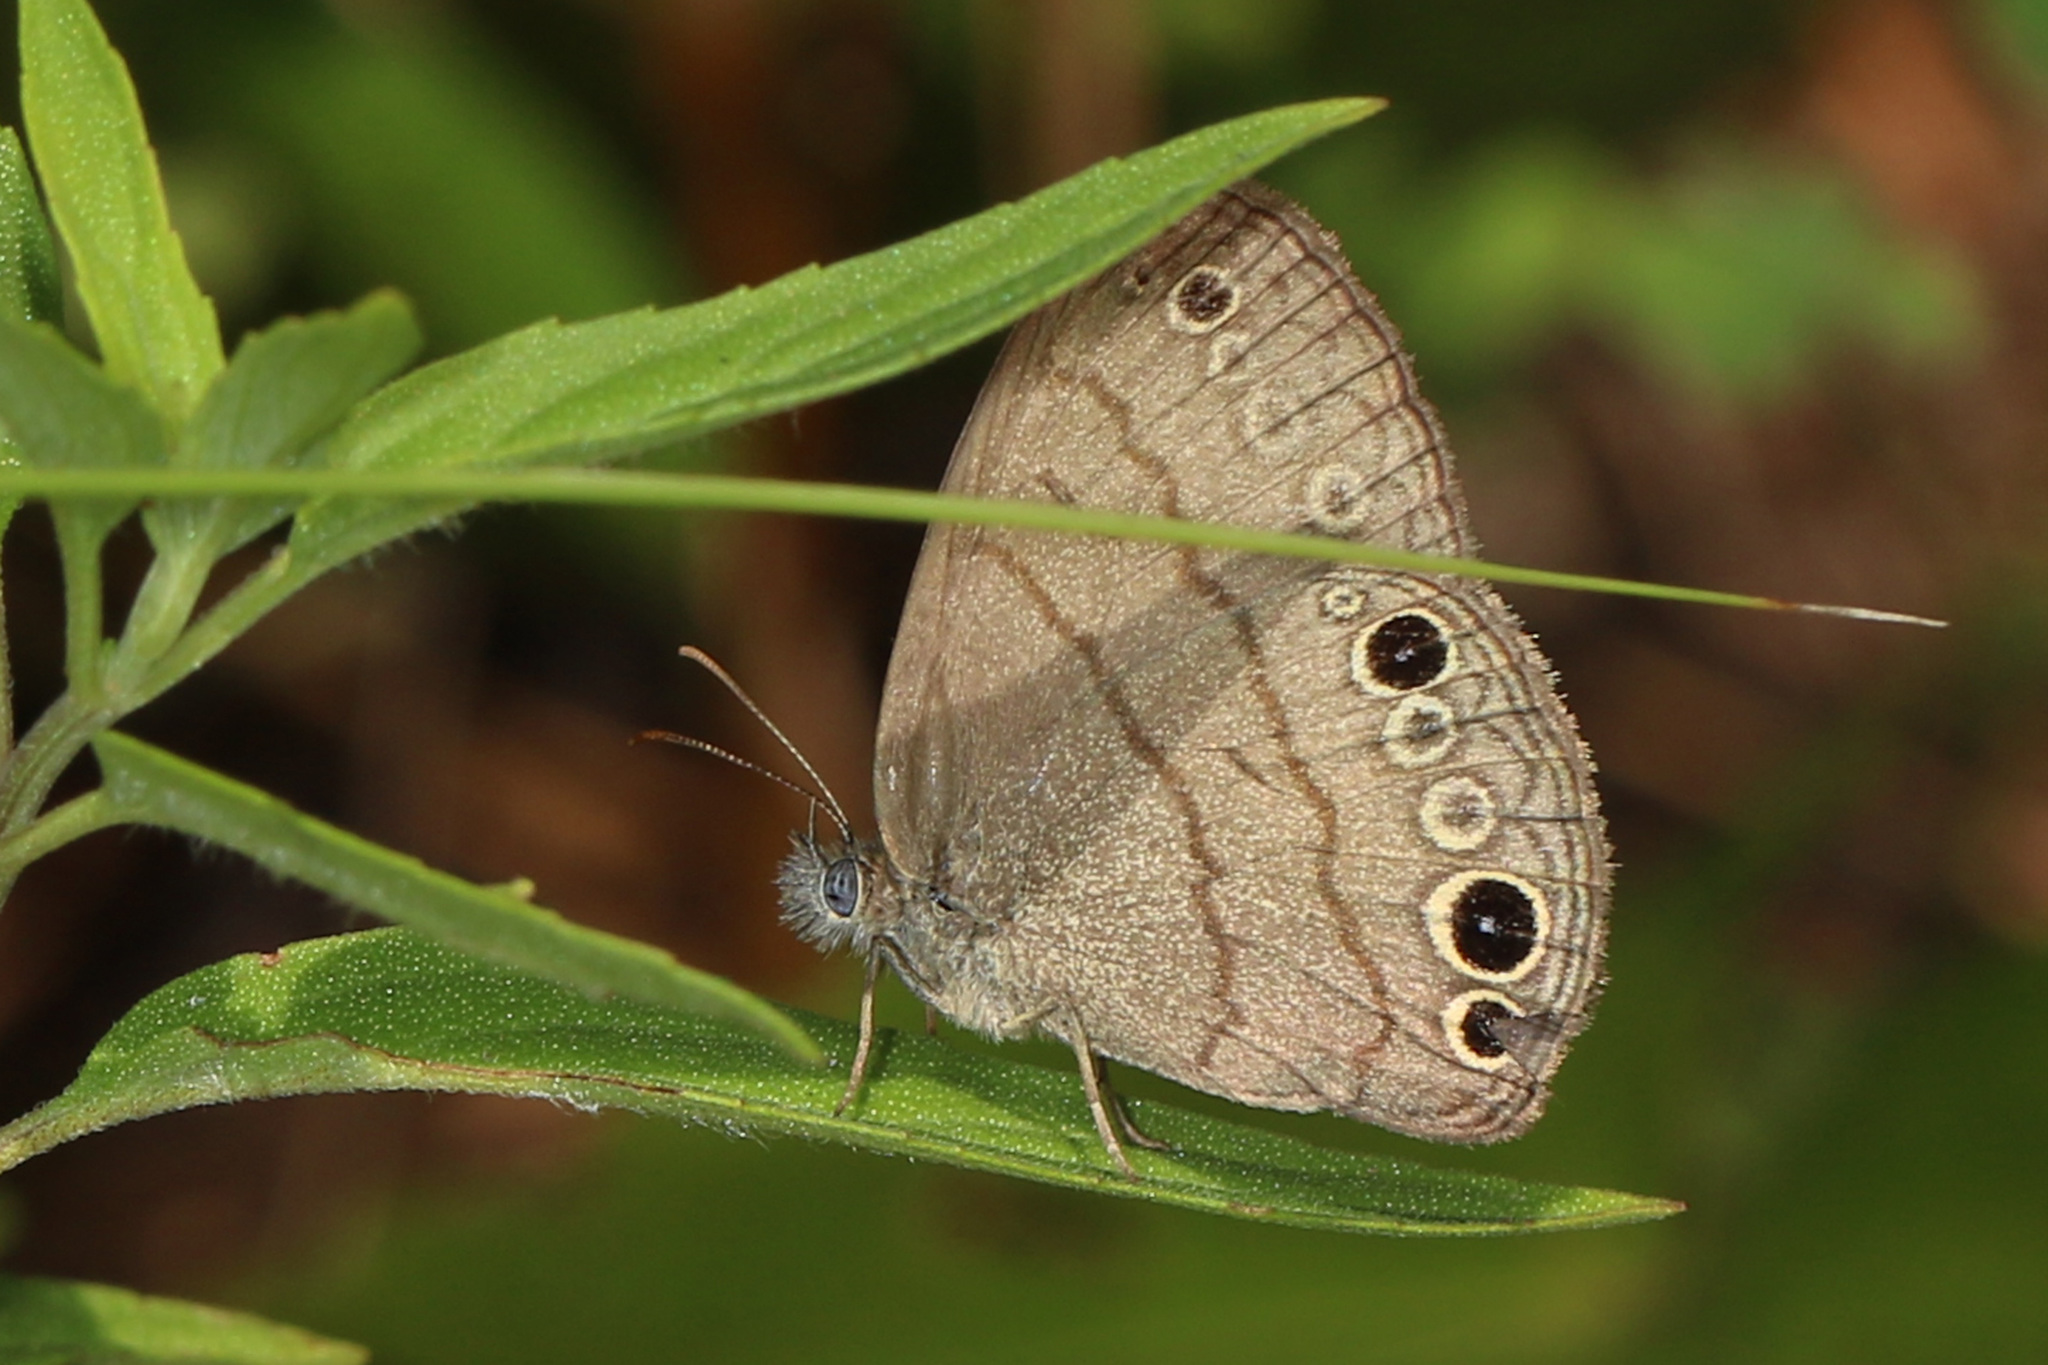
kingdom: Animalia
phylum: Arthropoda
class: Insecta
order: Lepidoptera
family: Nymphalidae
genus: Hermeuptychia
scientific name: Hermeuptychia intricata
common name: Intricate satyr
